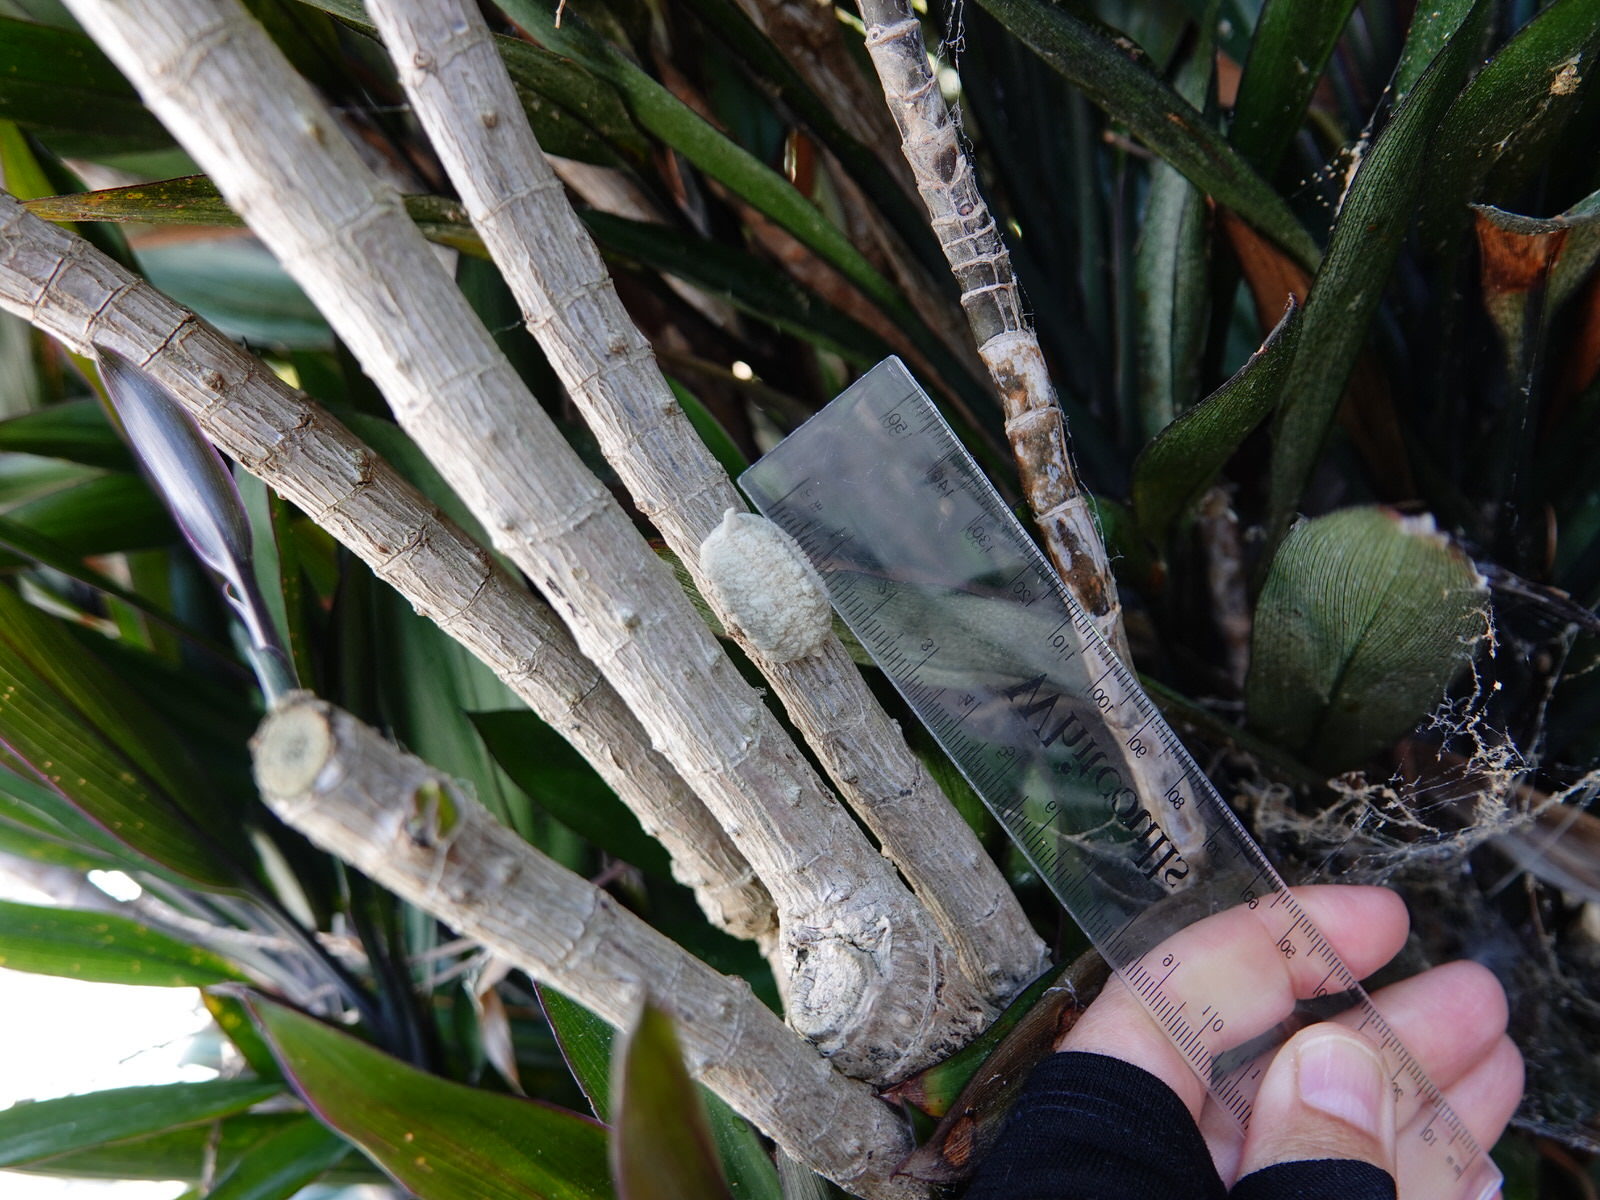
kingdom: Animalia
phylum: Arthropoda
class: Insecta
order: Mantodea
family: Miomantidae
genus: Miomantis
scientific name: Miomantis caffra
